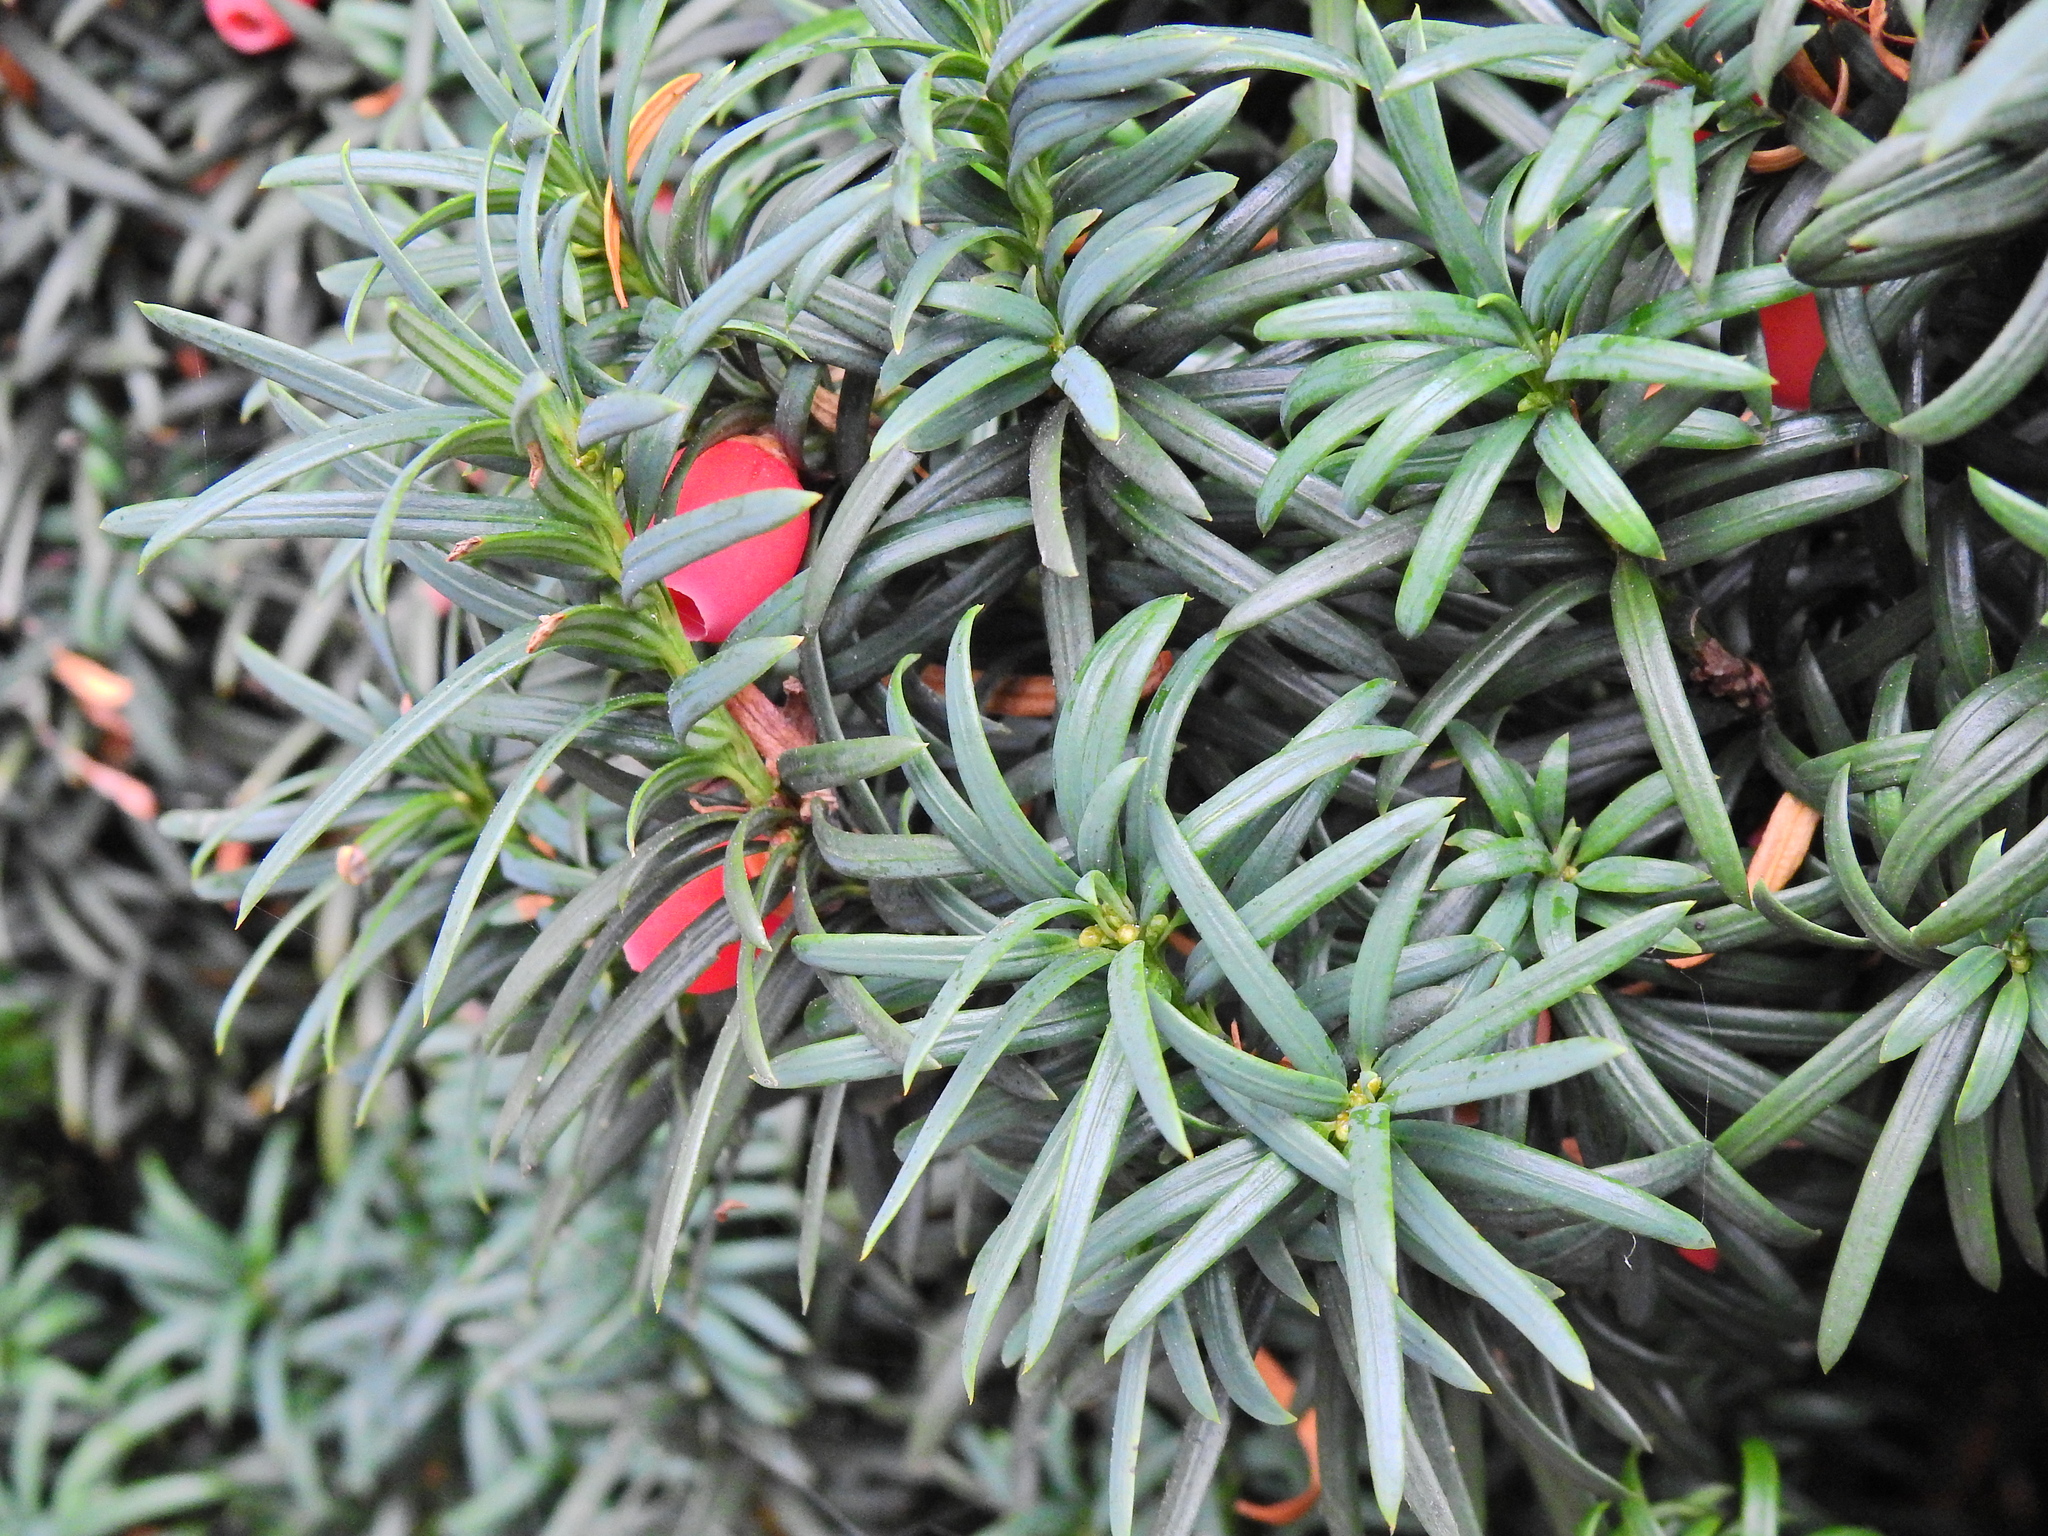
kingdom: Plantae
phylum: Tracheophyta
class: Pinopsida
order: Pinales
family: Taxaceae
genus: Taxus
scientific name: Taxus baccata
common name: Yew
